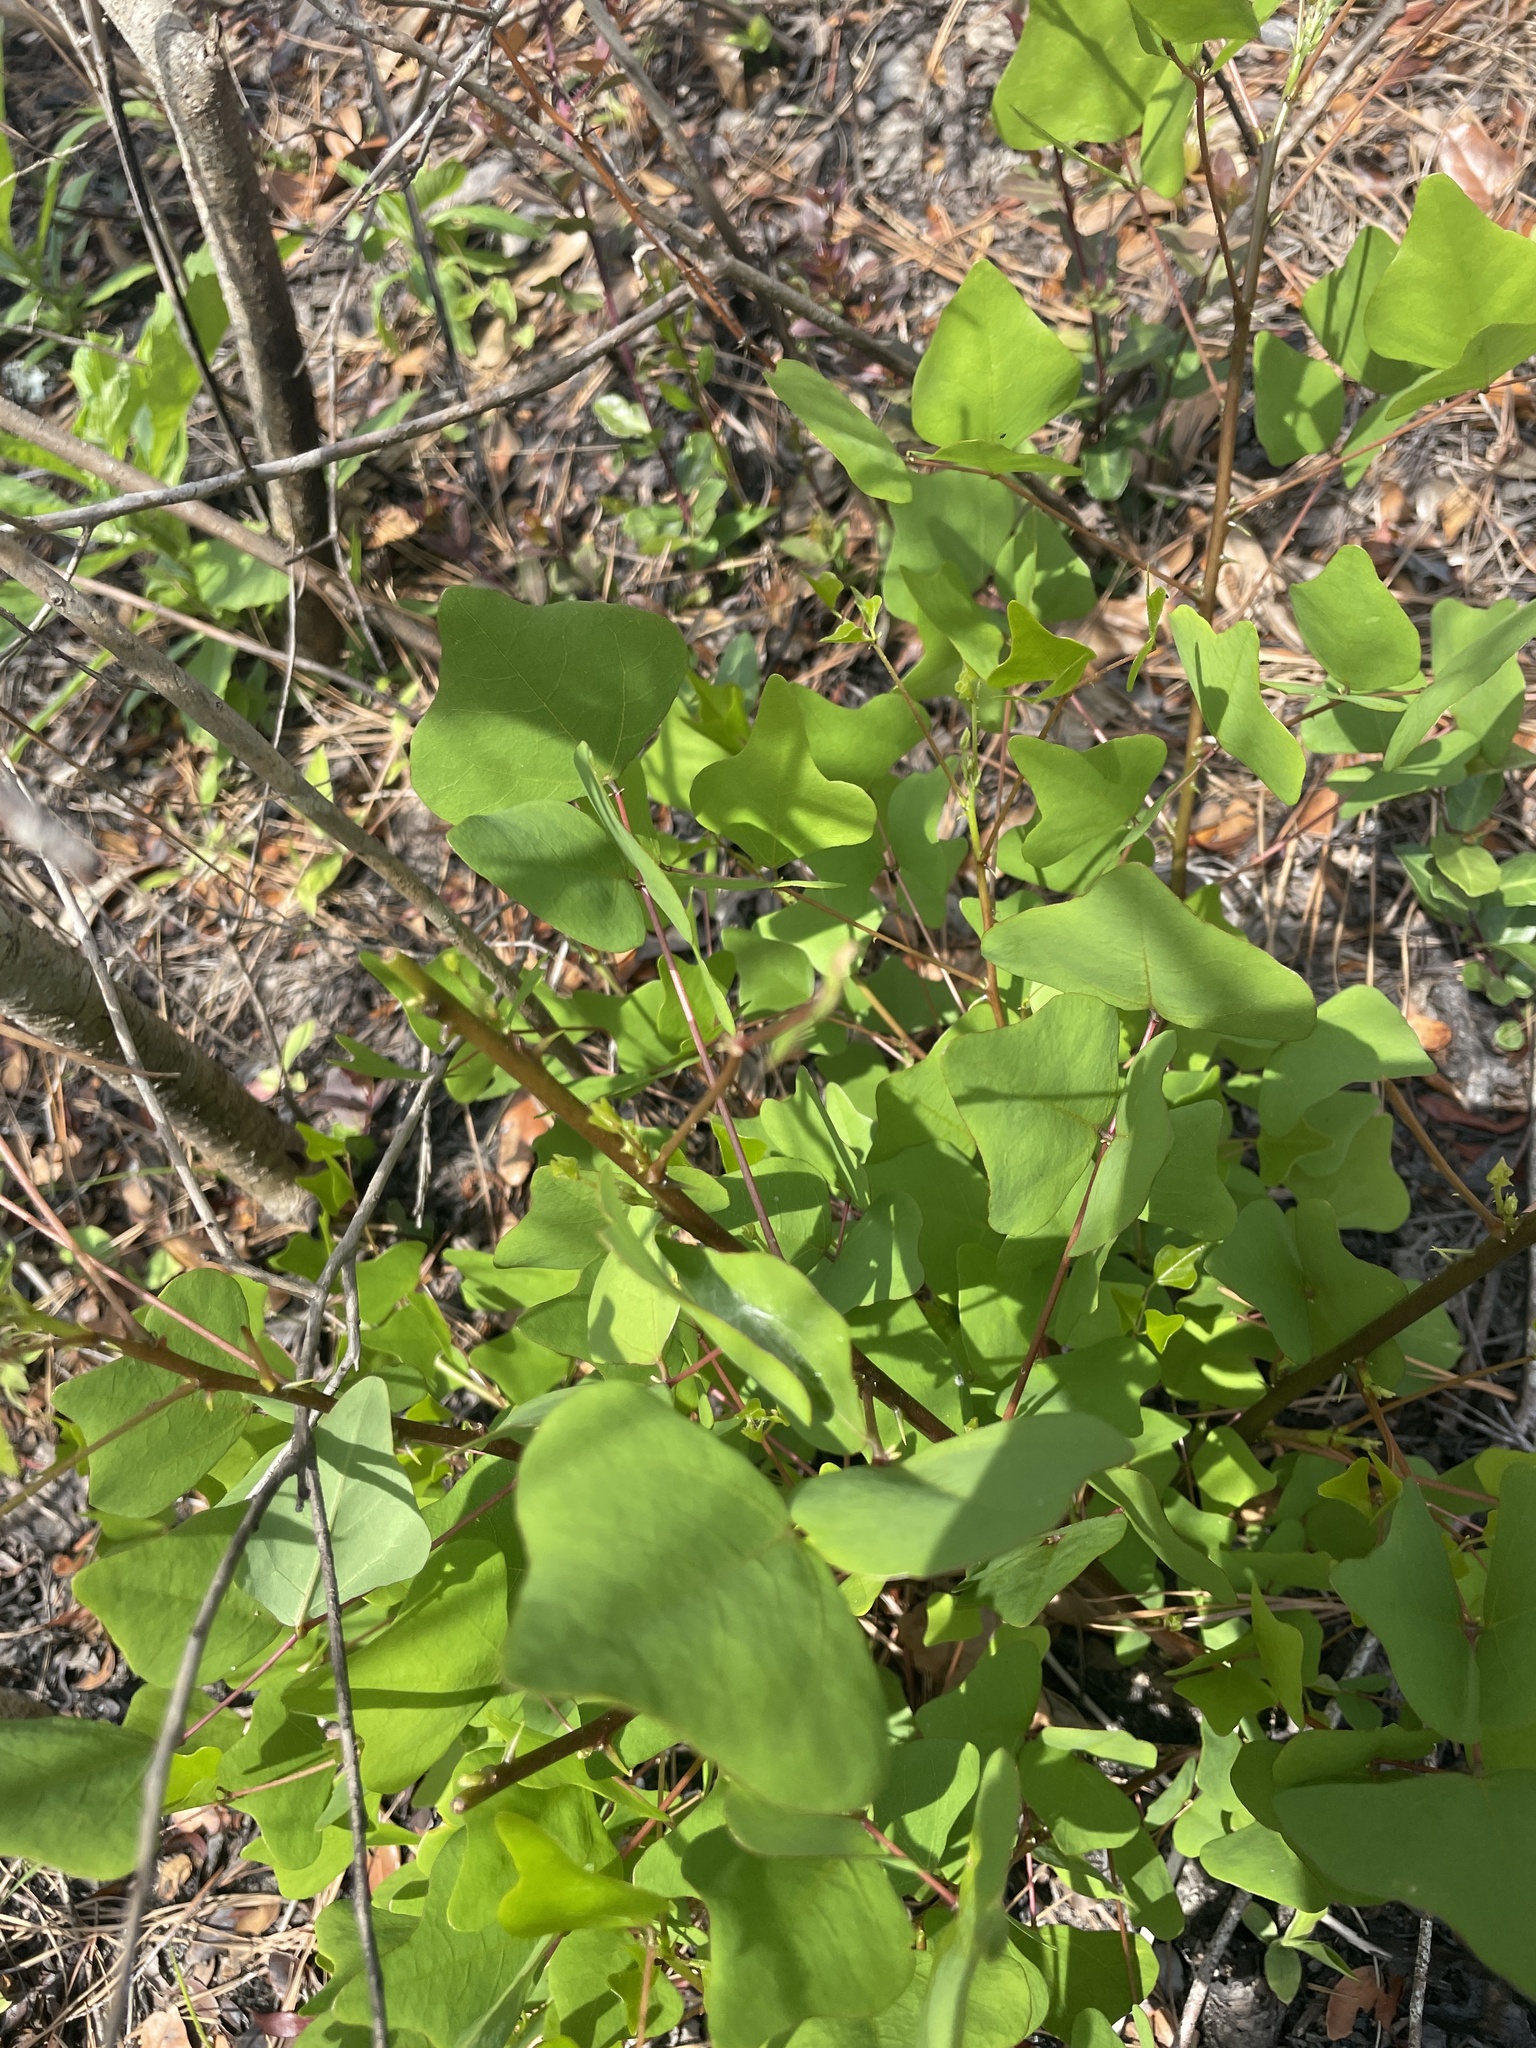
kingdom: Plantae
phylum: Tracheophyta
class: Magnoliopsida
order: Fabales
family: Fabaceae
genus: Erythrina
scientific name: Erythrina herbacea
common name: Coral-bean
